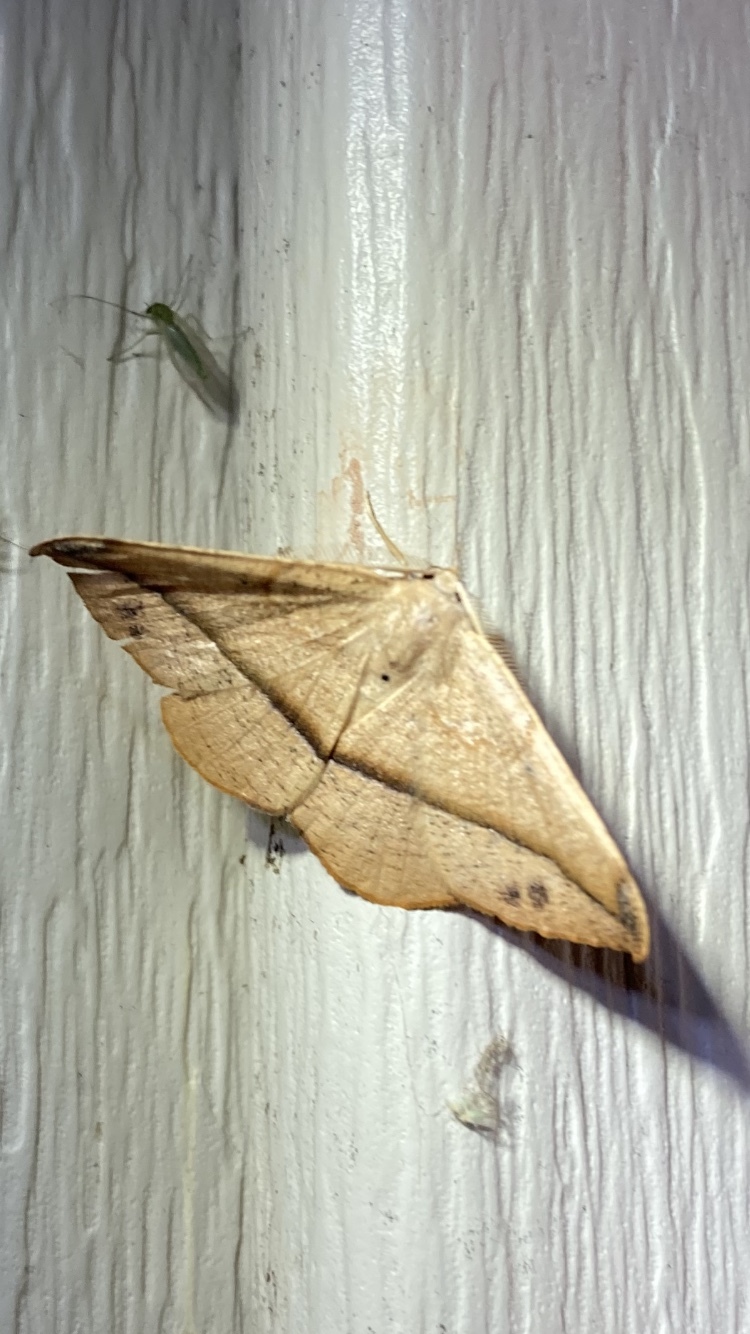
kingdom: Animalia
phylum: Arthropoda
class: Insecta
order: Lepidoptera
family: Geometridae
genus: Patalene
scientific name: Patalene olyzonaria
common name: Juniper geometer moth
